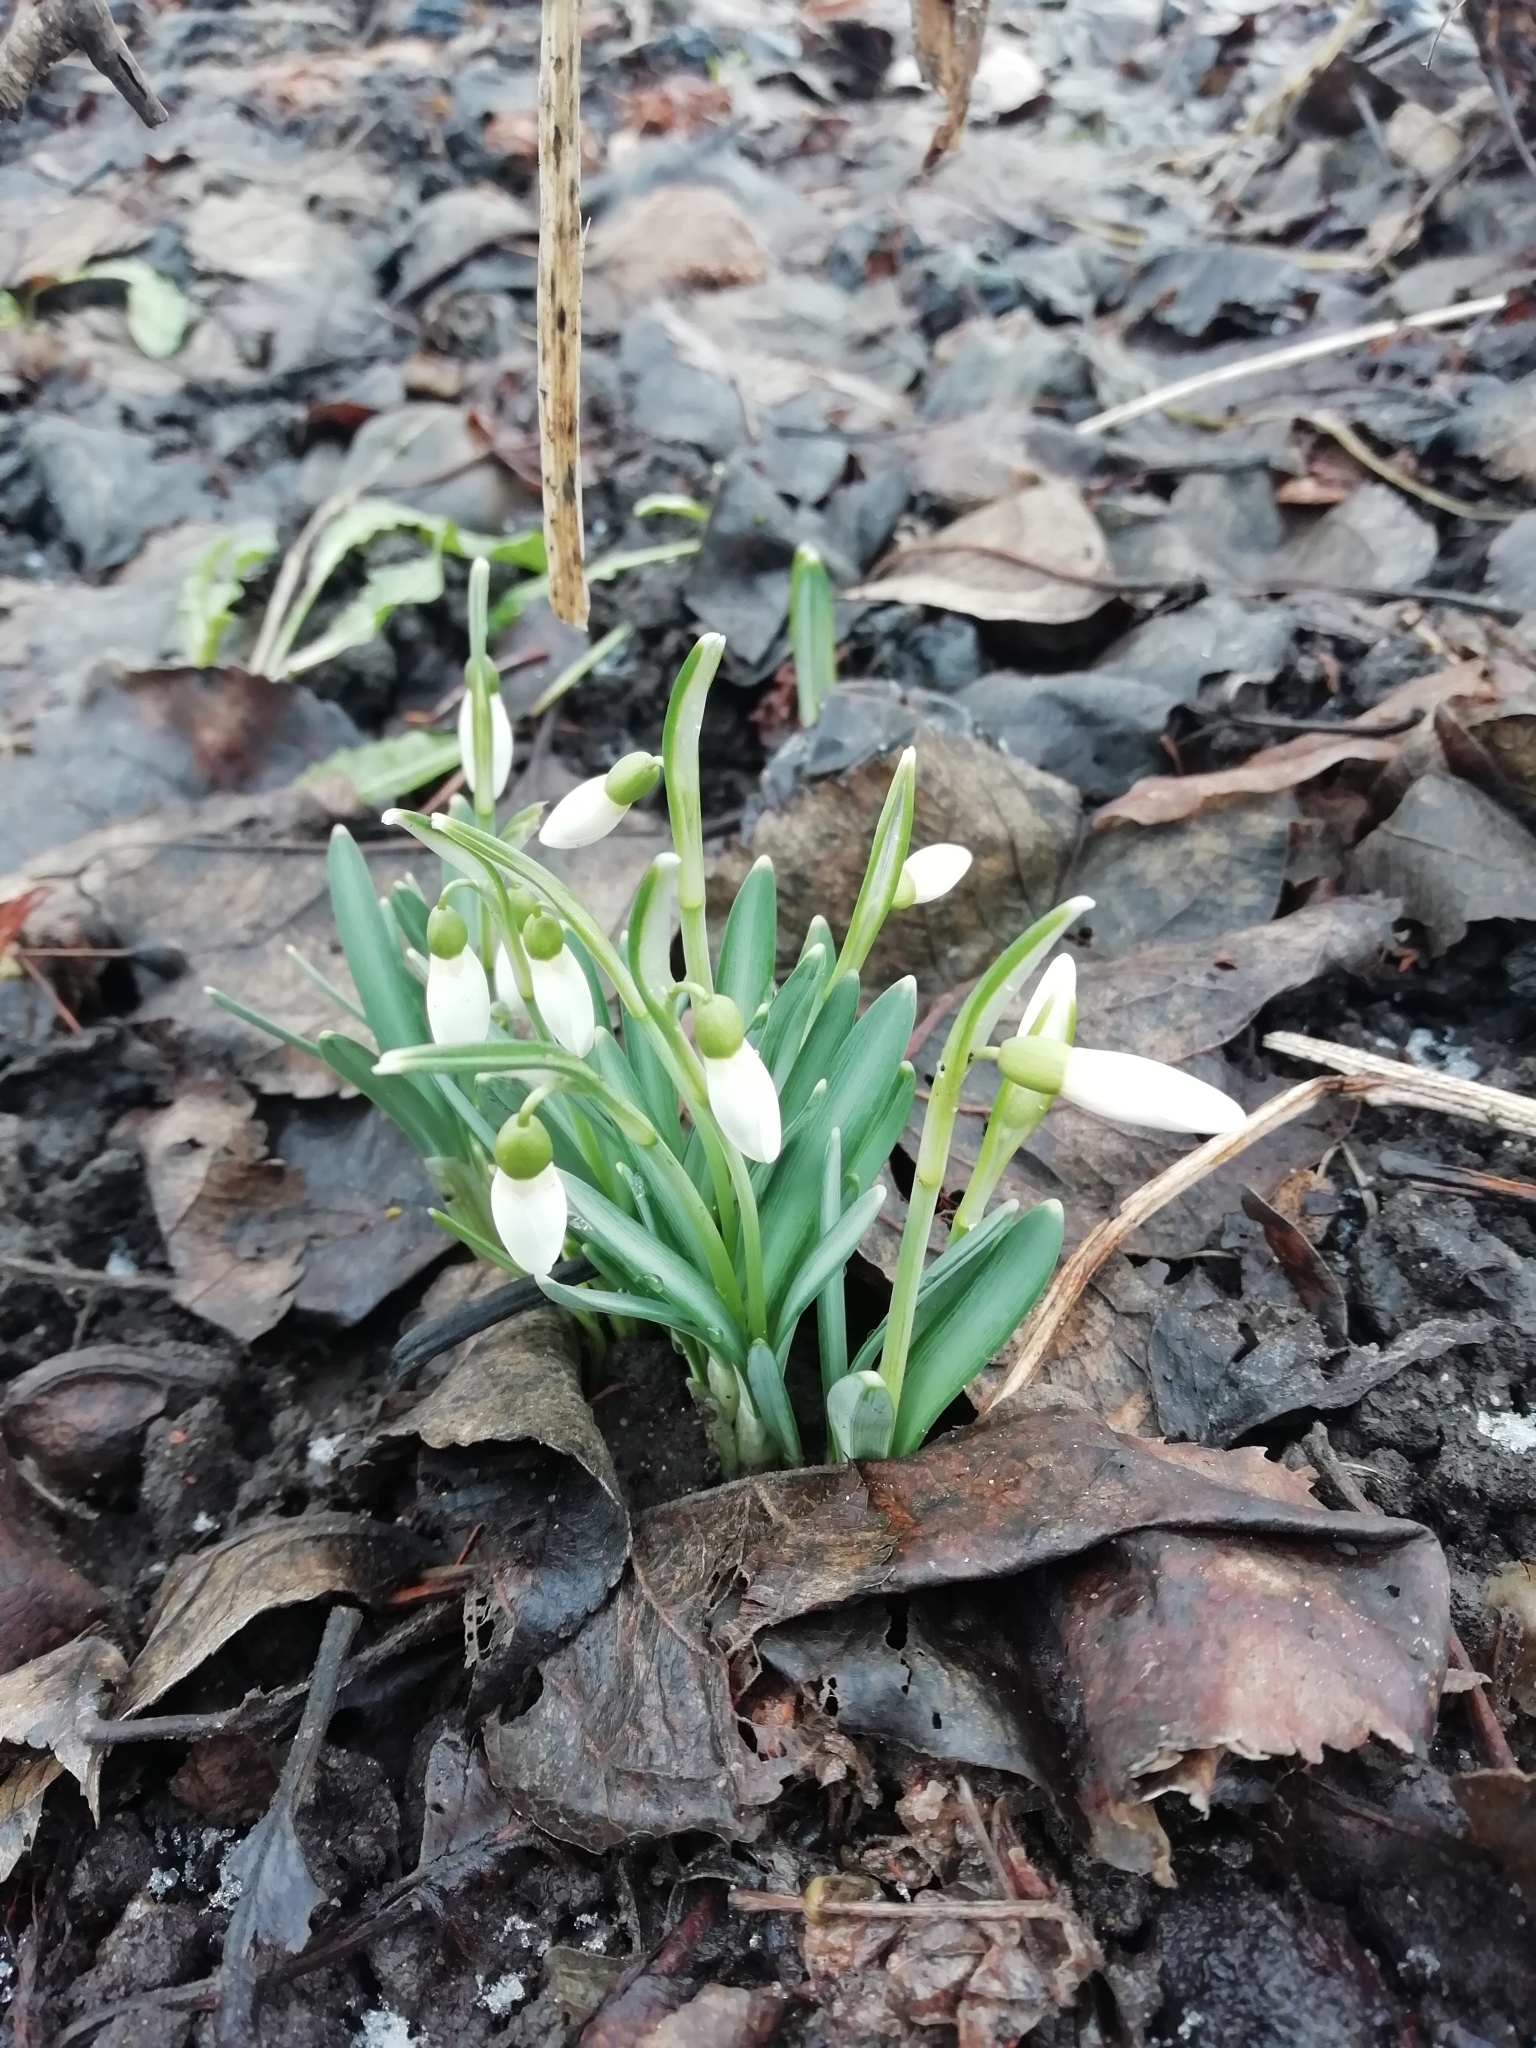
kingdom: Plantae
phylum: Tracheophyta
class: Liliopsida
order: Asparagales
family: Amaryllidaceae
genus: Galanthus
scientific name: Galanthus nivalis
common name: Snowdrop
